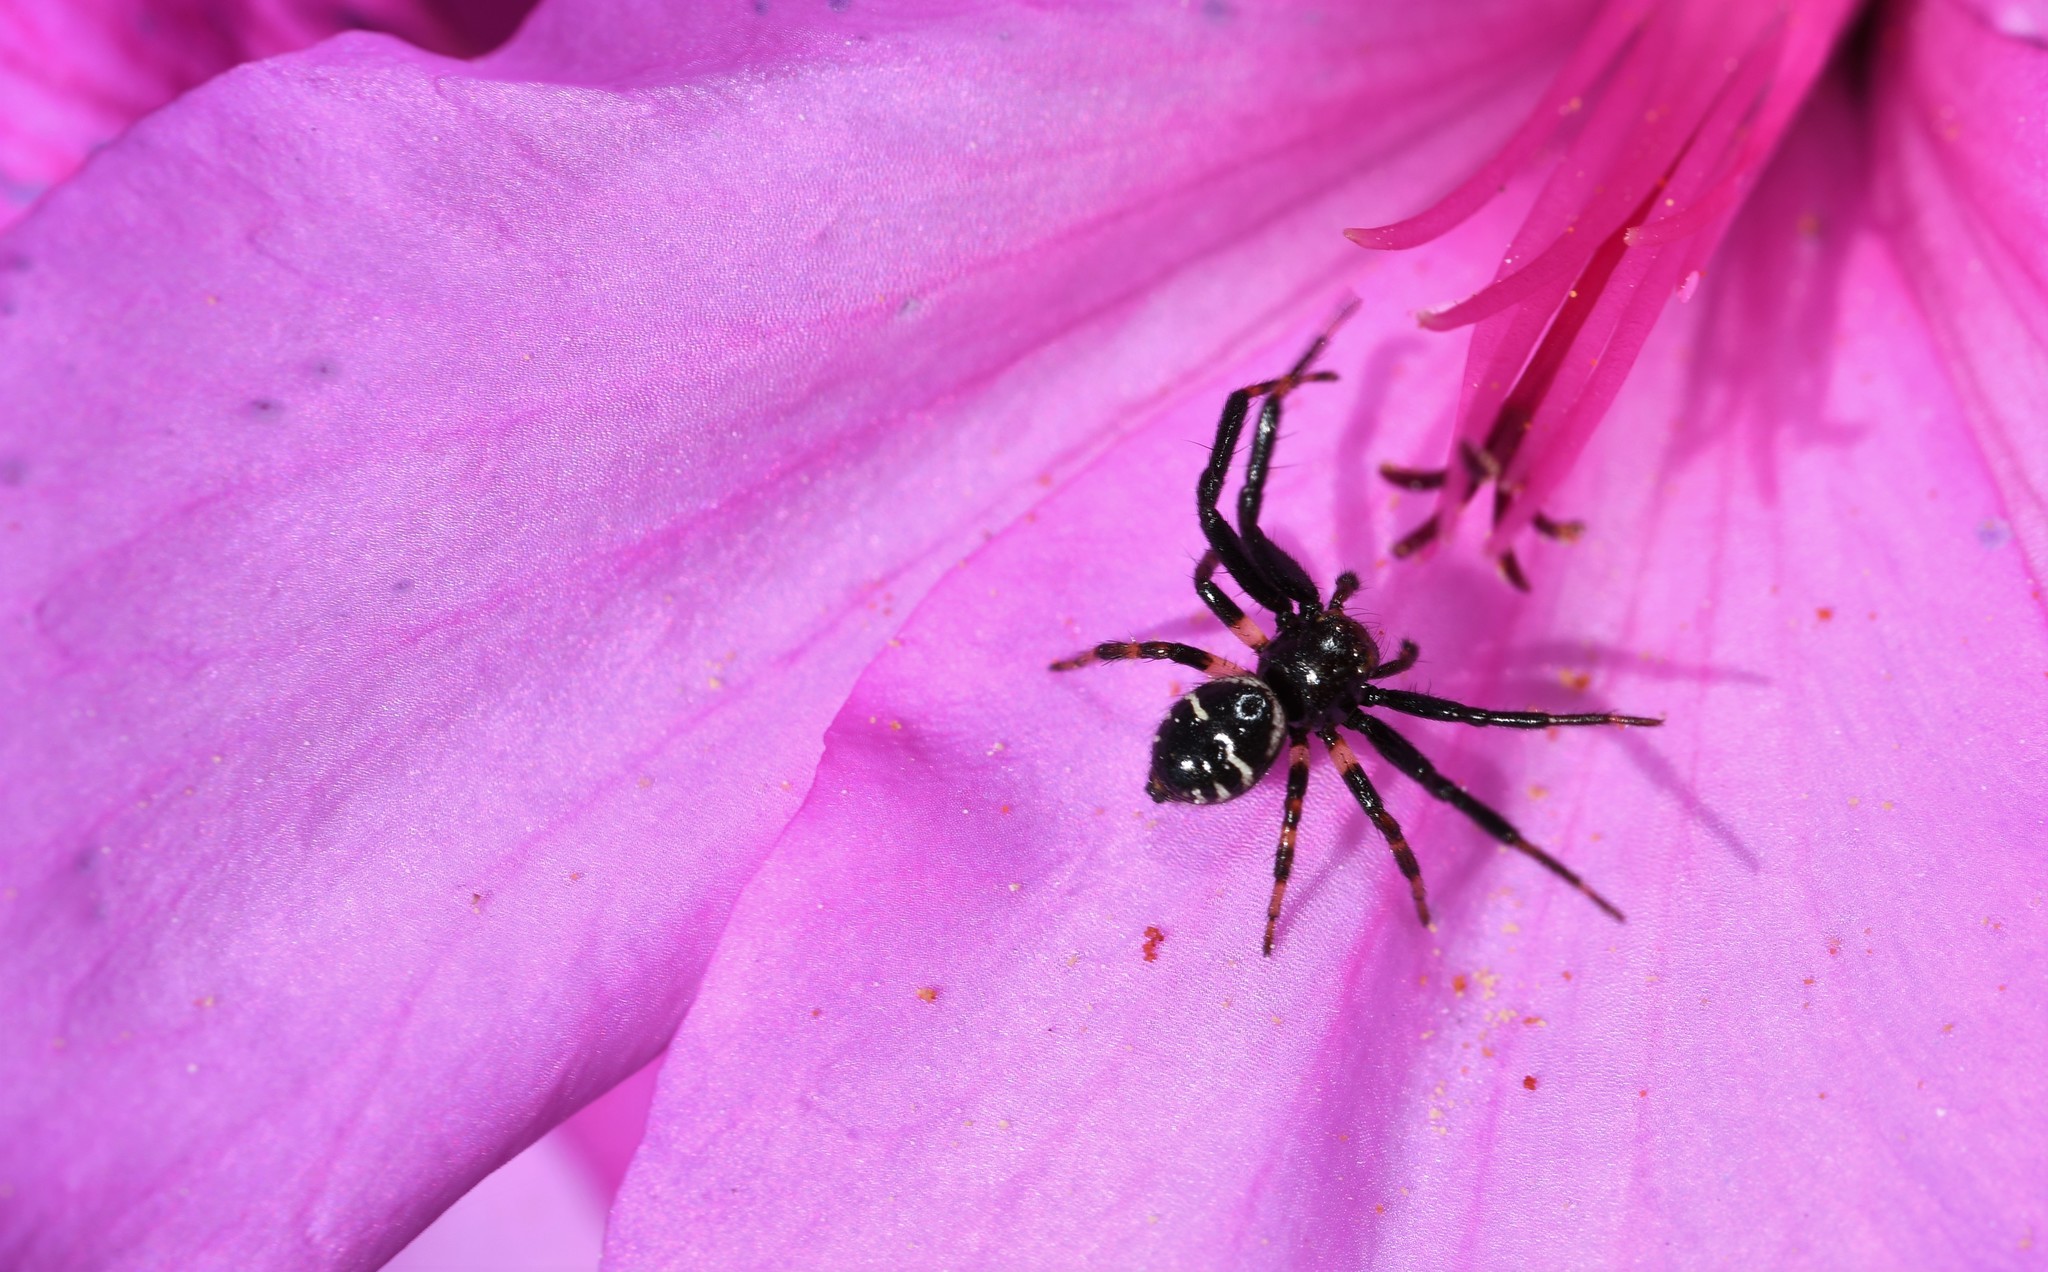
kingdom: Animalia
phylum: Arthropoda
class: Arachnida
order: Araneae
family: Thomisidae
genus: Synema
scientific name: Synema globosum
